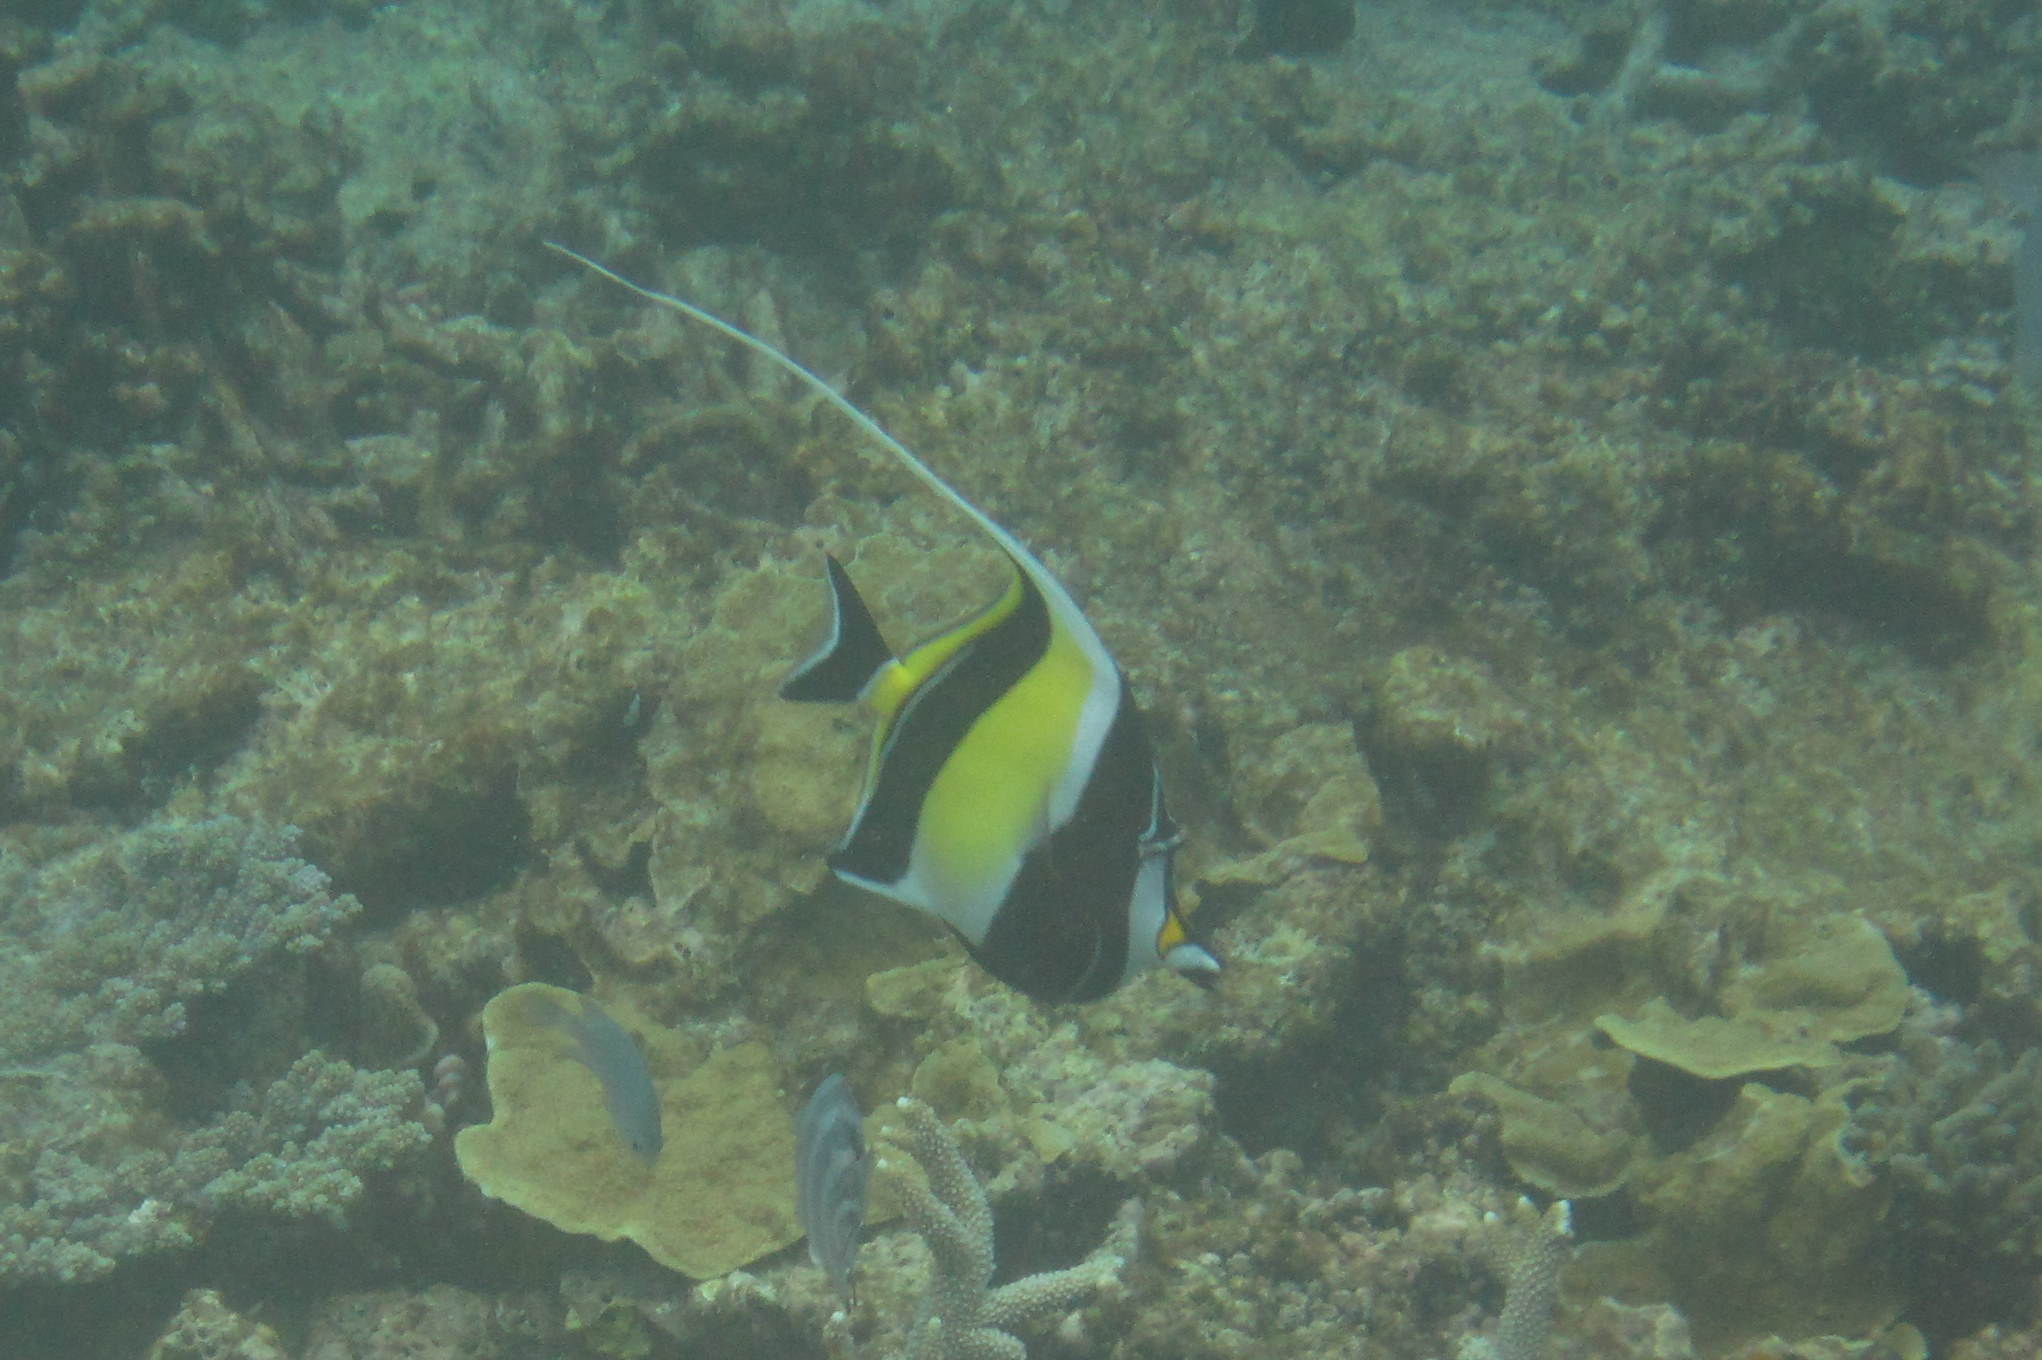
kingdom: Animalia
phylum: Chordata
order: Perciformes
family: Zanclidae
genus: Zanclus
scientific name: Zanclus cornutus
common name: Moorish idol
